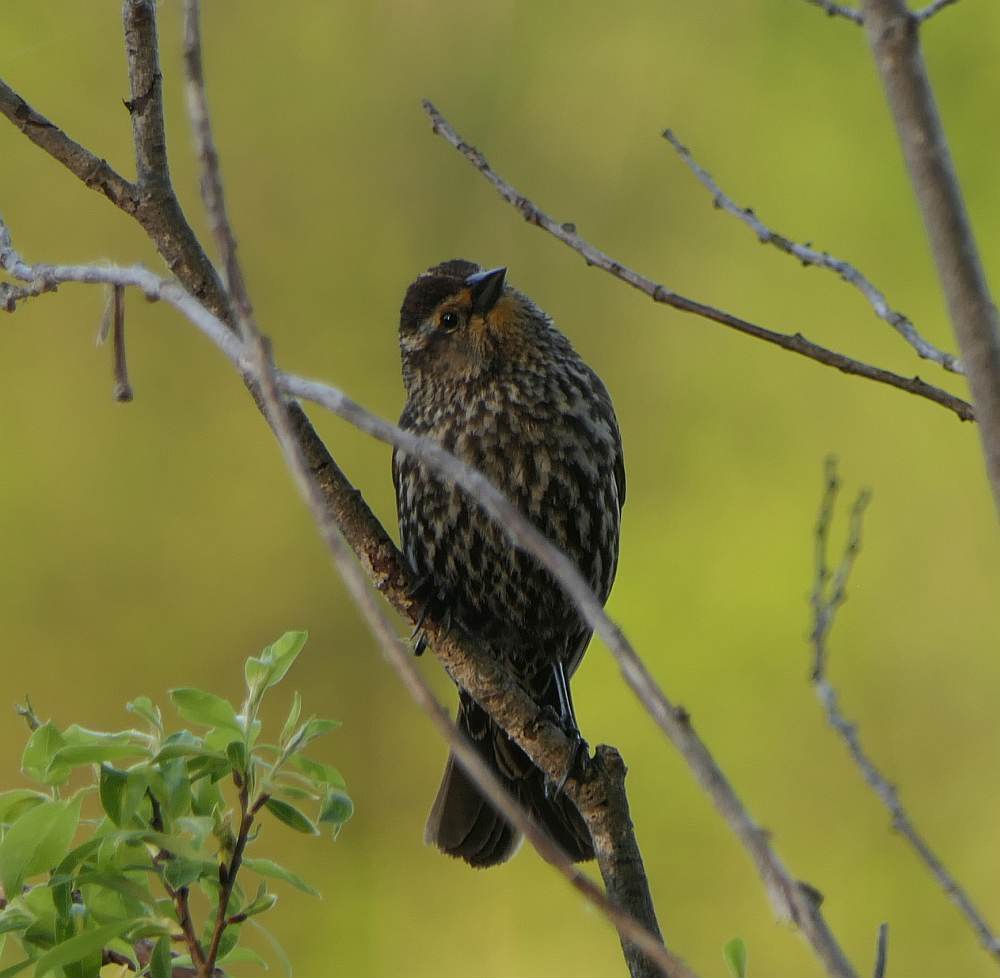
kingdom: Animalia
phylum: Chordata
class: Aves
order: Passeriformes
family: Icteridae
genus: Agelaius
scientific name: Agelaius phoeniceus
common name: Red-winged blackbird
